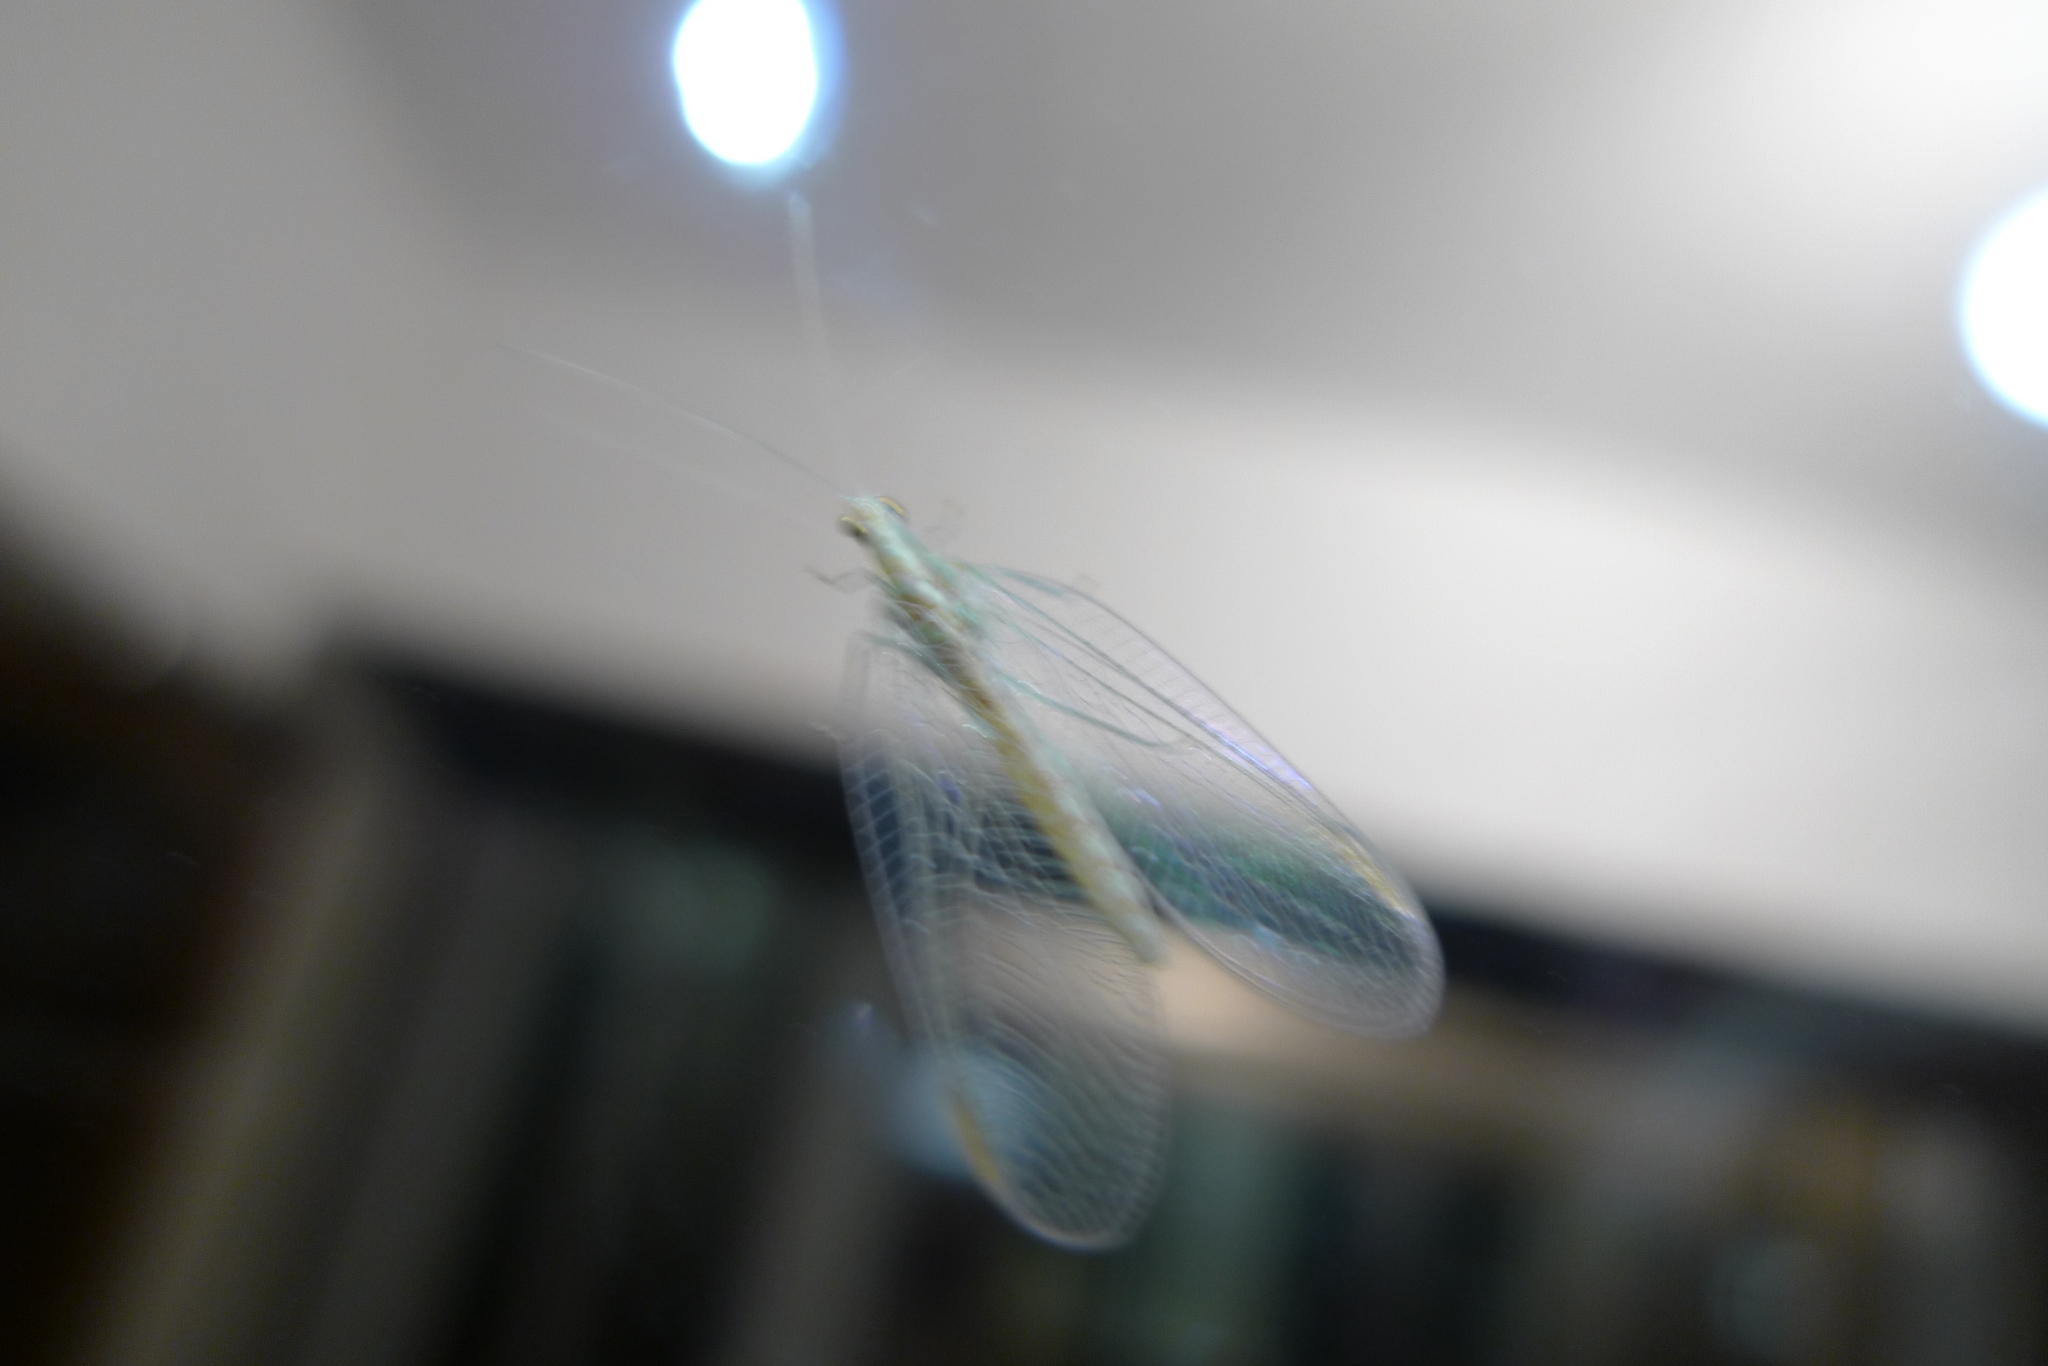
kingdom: Animalia
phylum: Arthropoda
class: Insecta
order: Neuroptera
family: Chrysopidae
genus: Chrysoperla
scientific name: Chrysoperla
